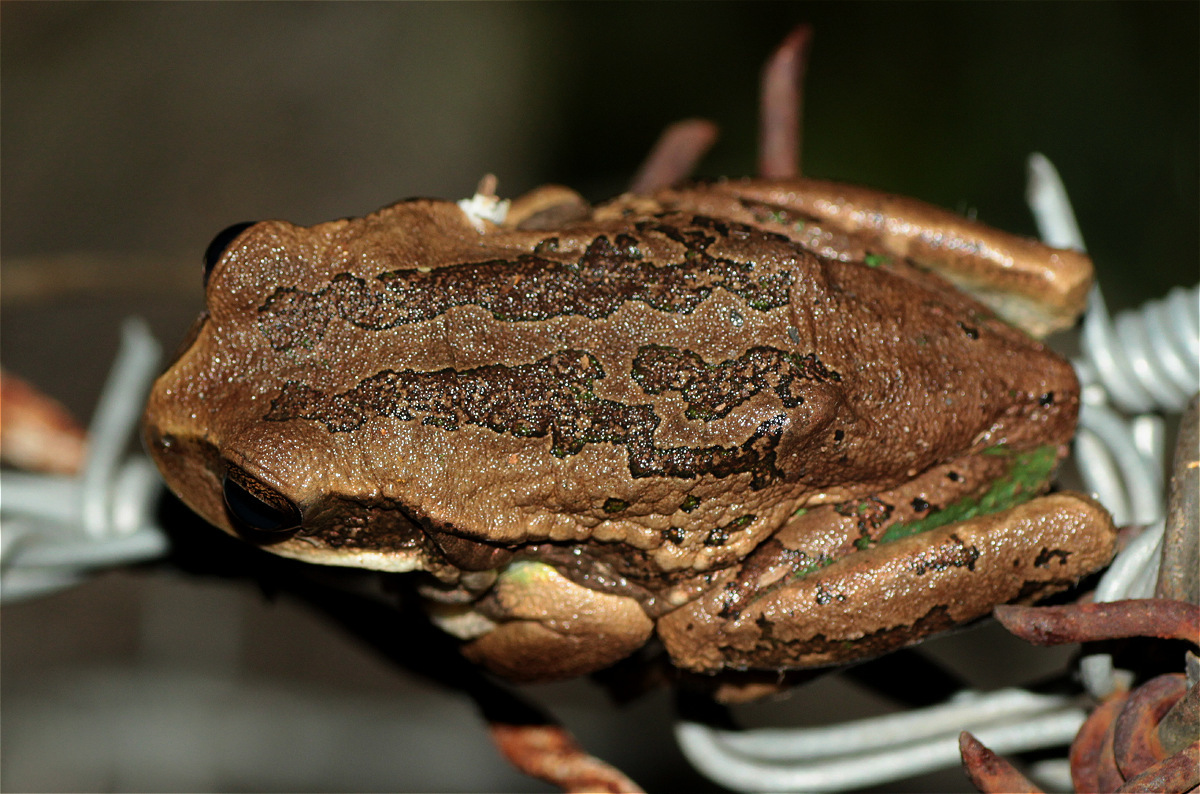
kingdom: Animalia
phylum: Chordata
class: Amphibia
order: Anura
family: Hemiphractidae
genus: Gastrotheca
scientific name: Gastrotheca cuencana
